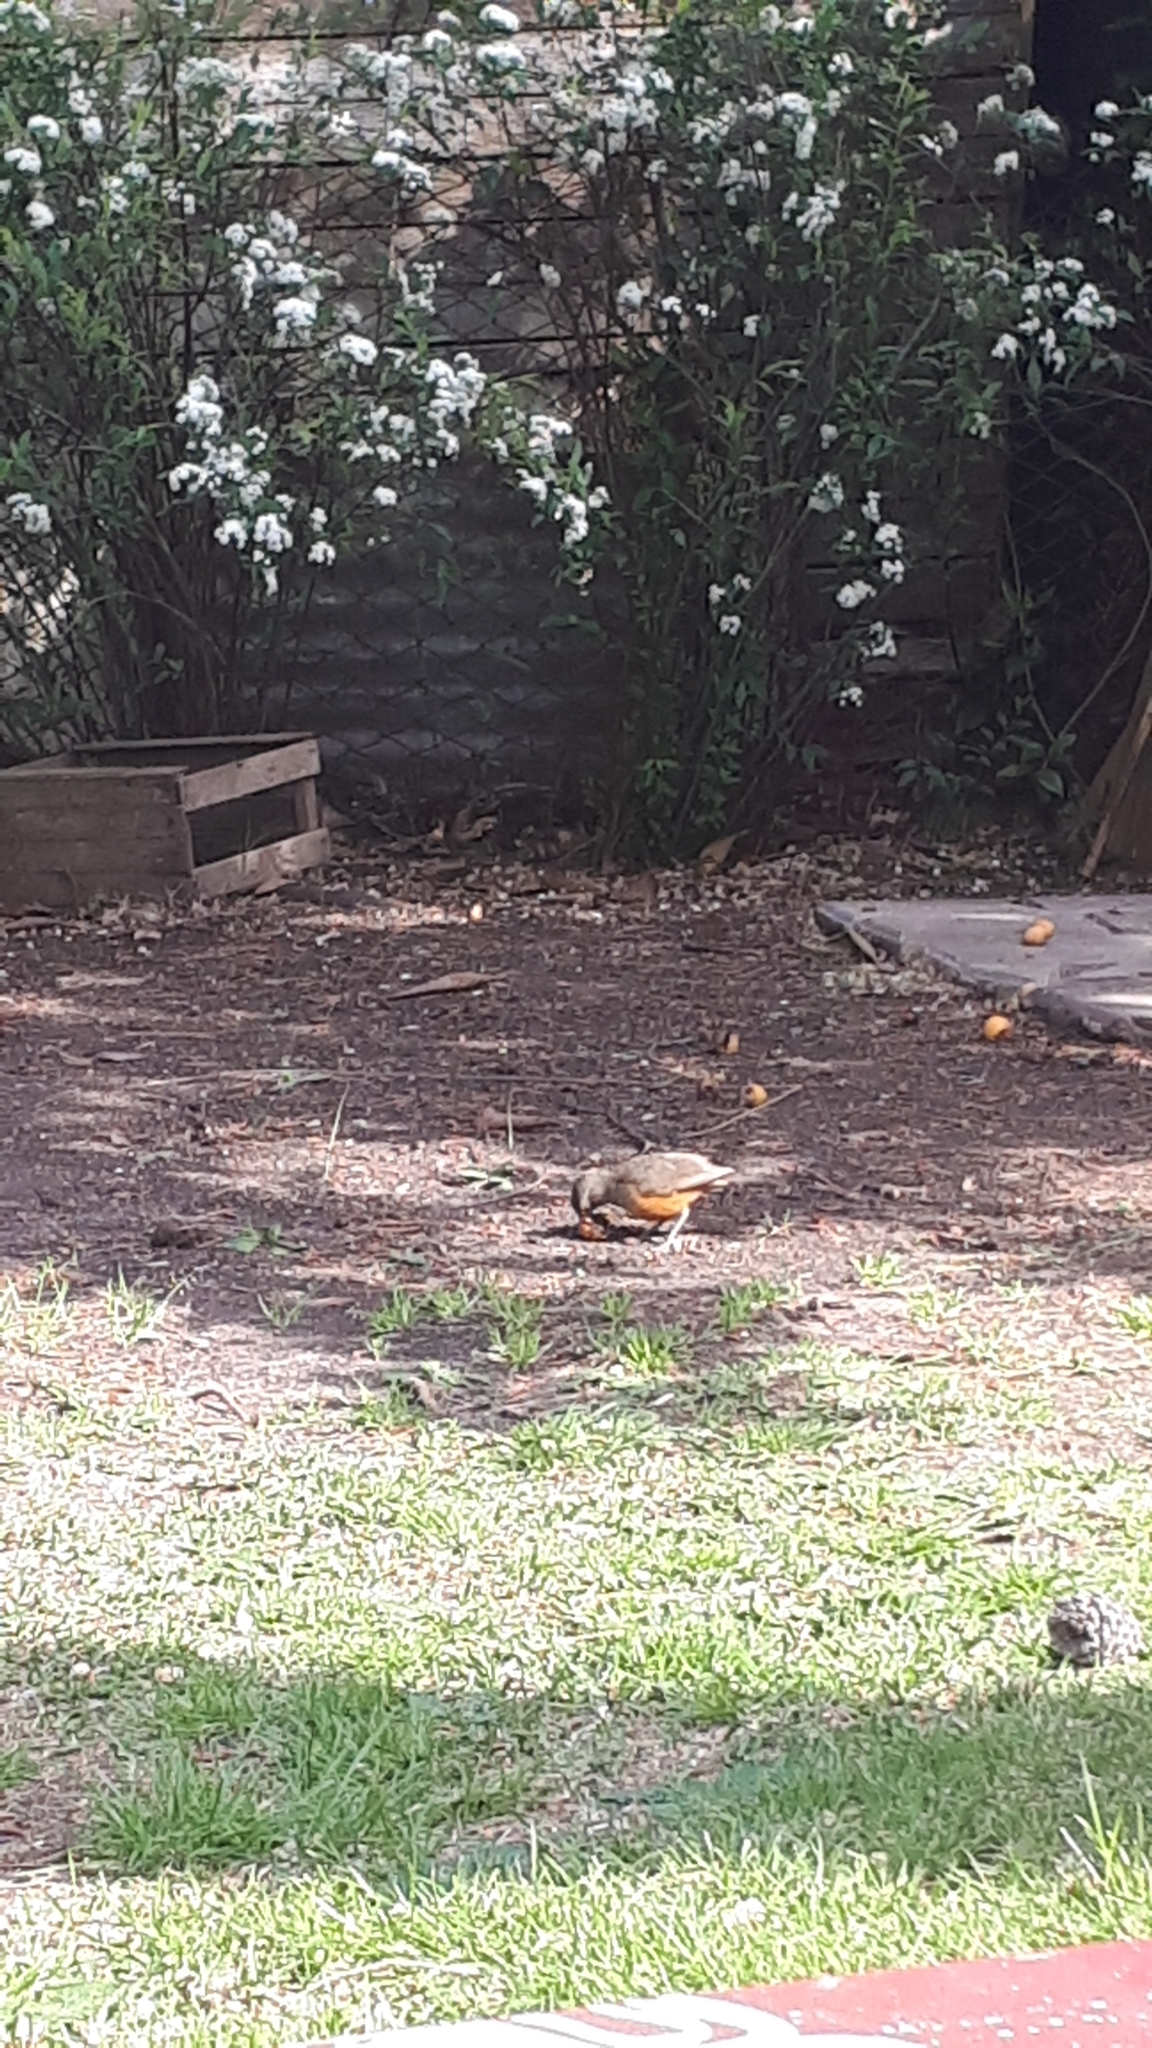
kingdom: Animalia
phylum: Chordata
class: Aves
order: Passeriformes
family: Turdidae
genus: Turdus
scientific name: Turdus rufiventris
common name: Rufous-bellied thrush
